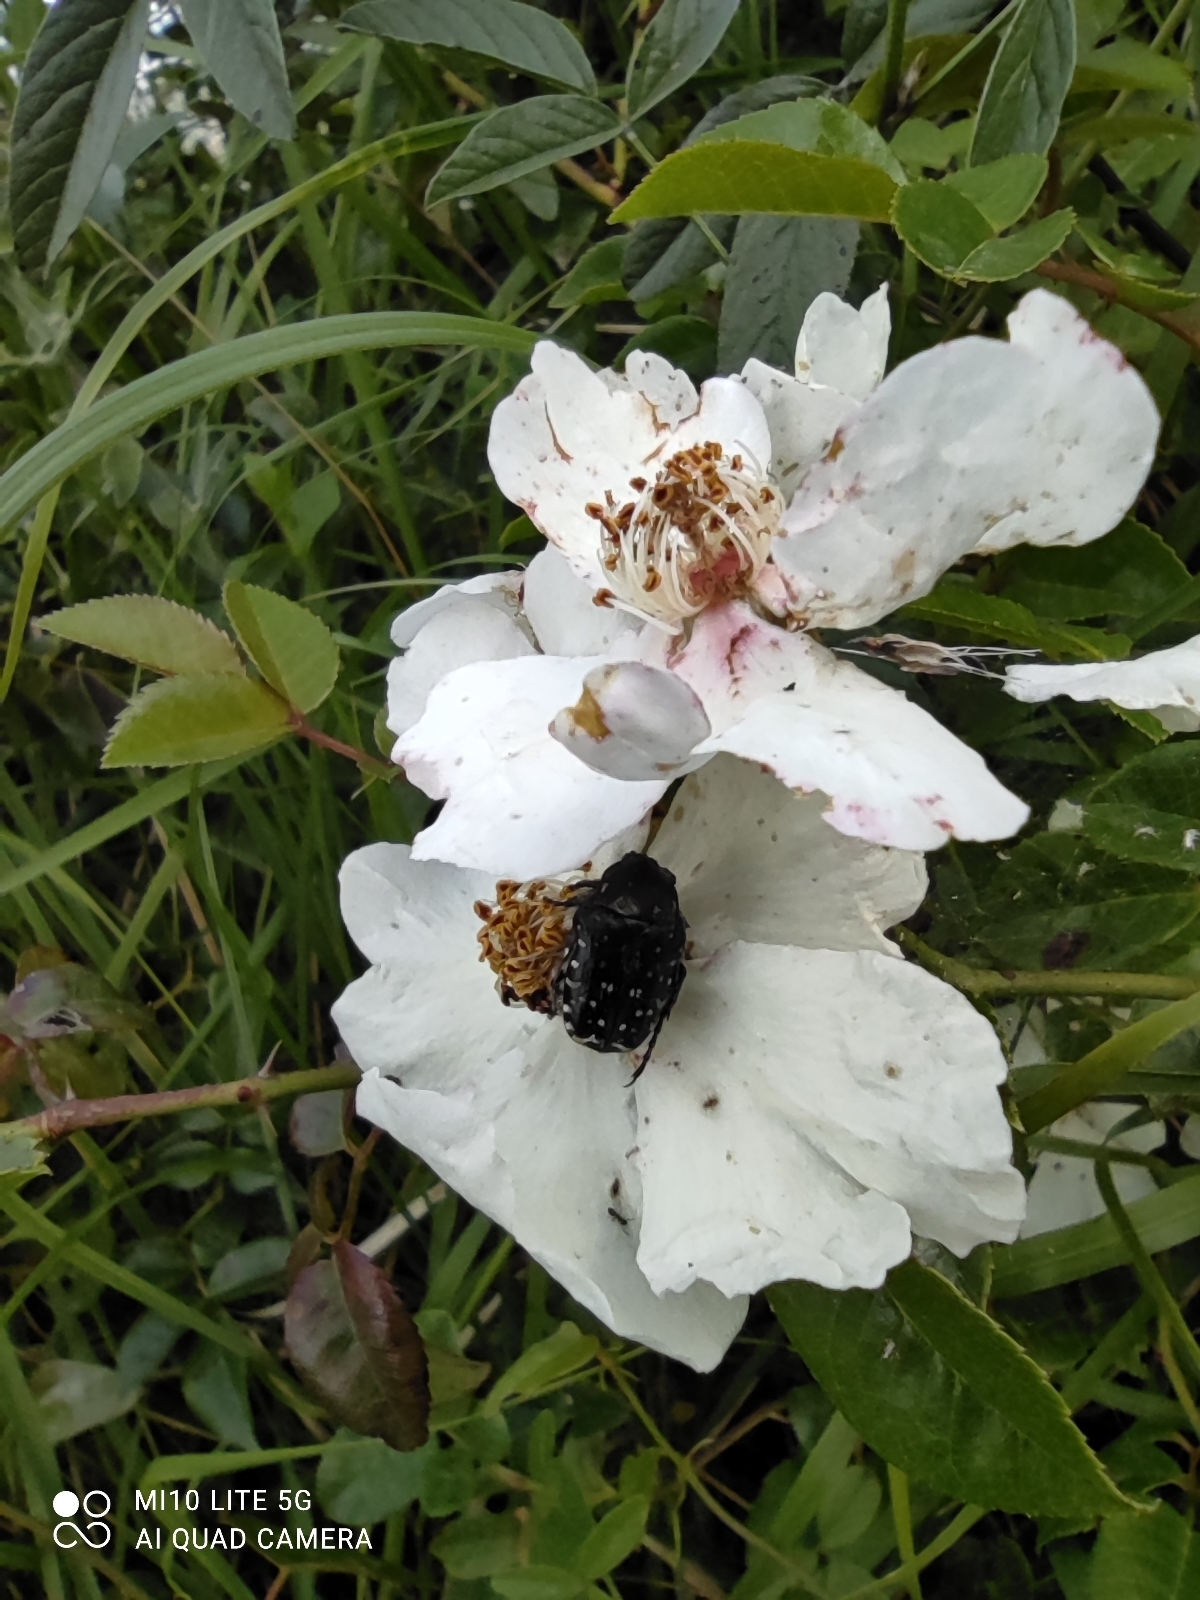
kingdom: Animalia
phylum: Arthropoda
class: Insecta
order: Coleoptera
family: Scarabaeidae
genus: Oxythyrea
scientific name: Oxythyrea funesta
